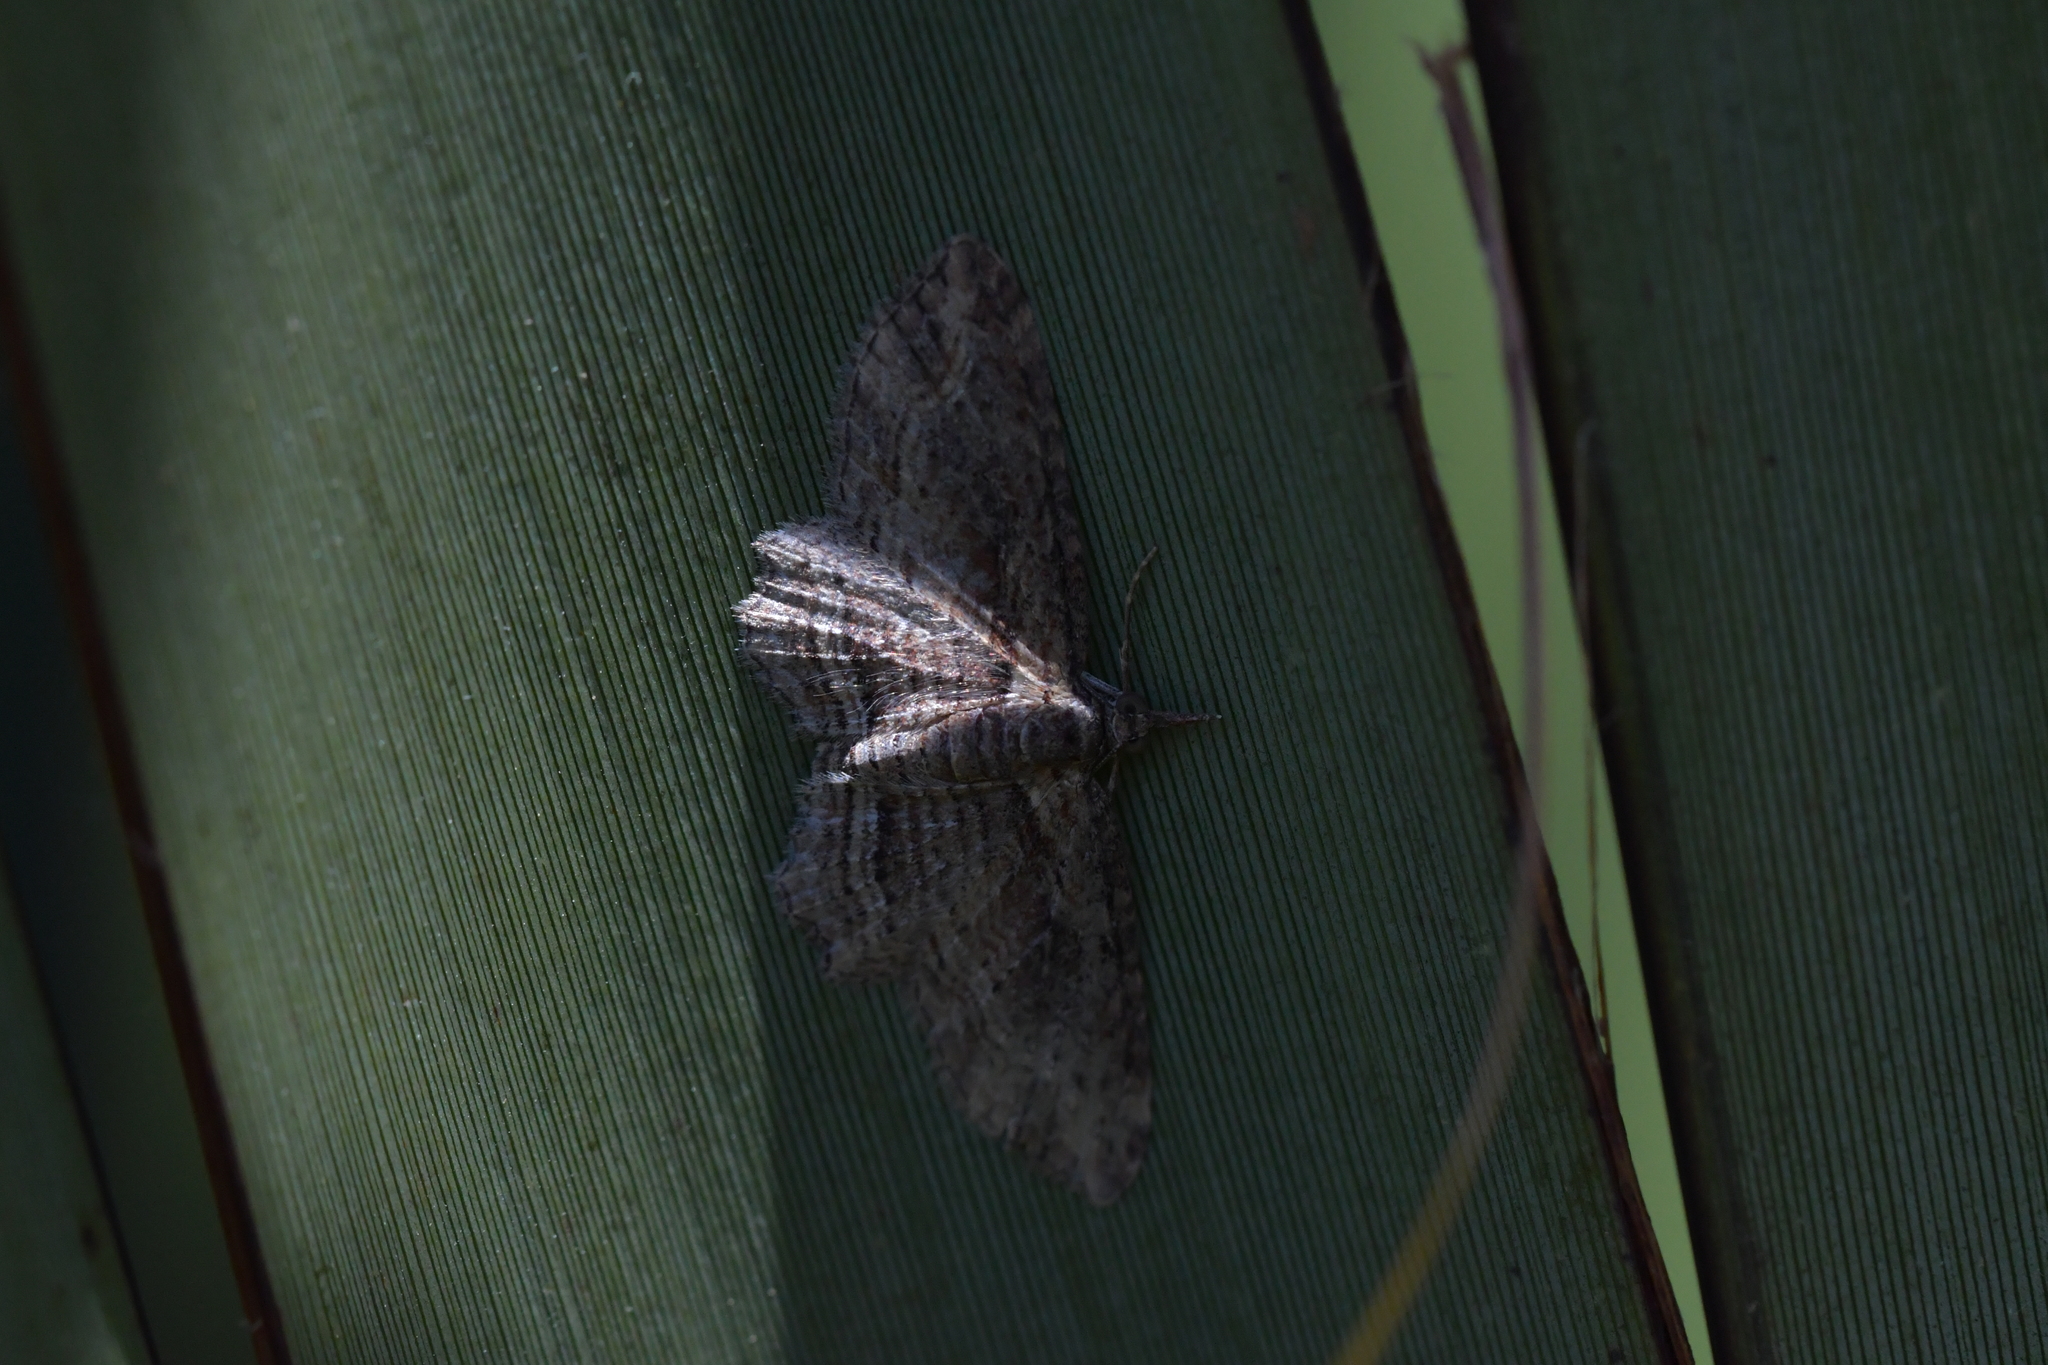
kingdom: Animalia
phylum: Arthropoda
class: Insecta
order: Lepidoptera
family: Geometridae
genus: Chloroclystis
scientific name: Chloroclystis filata
